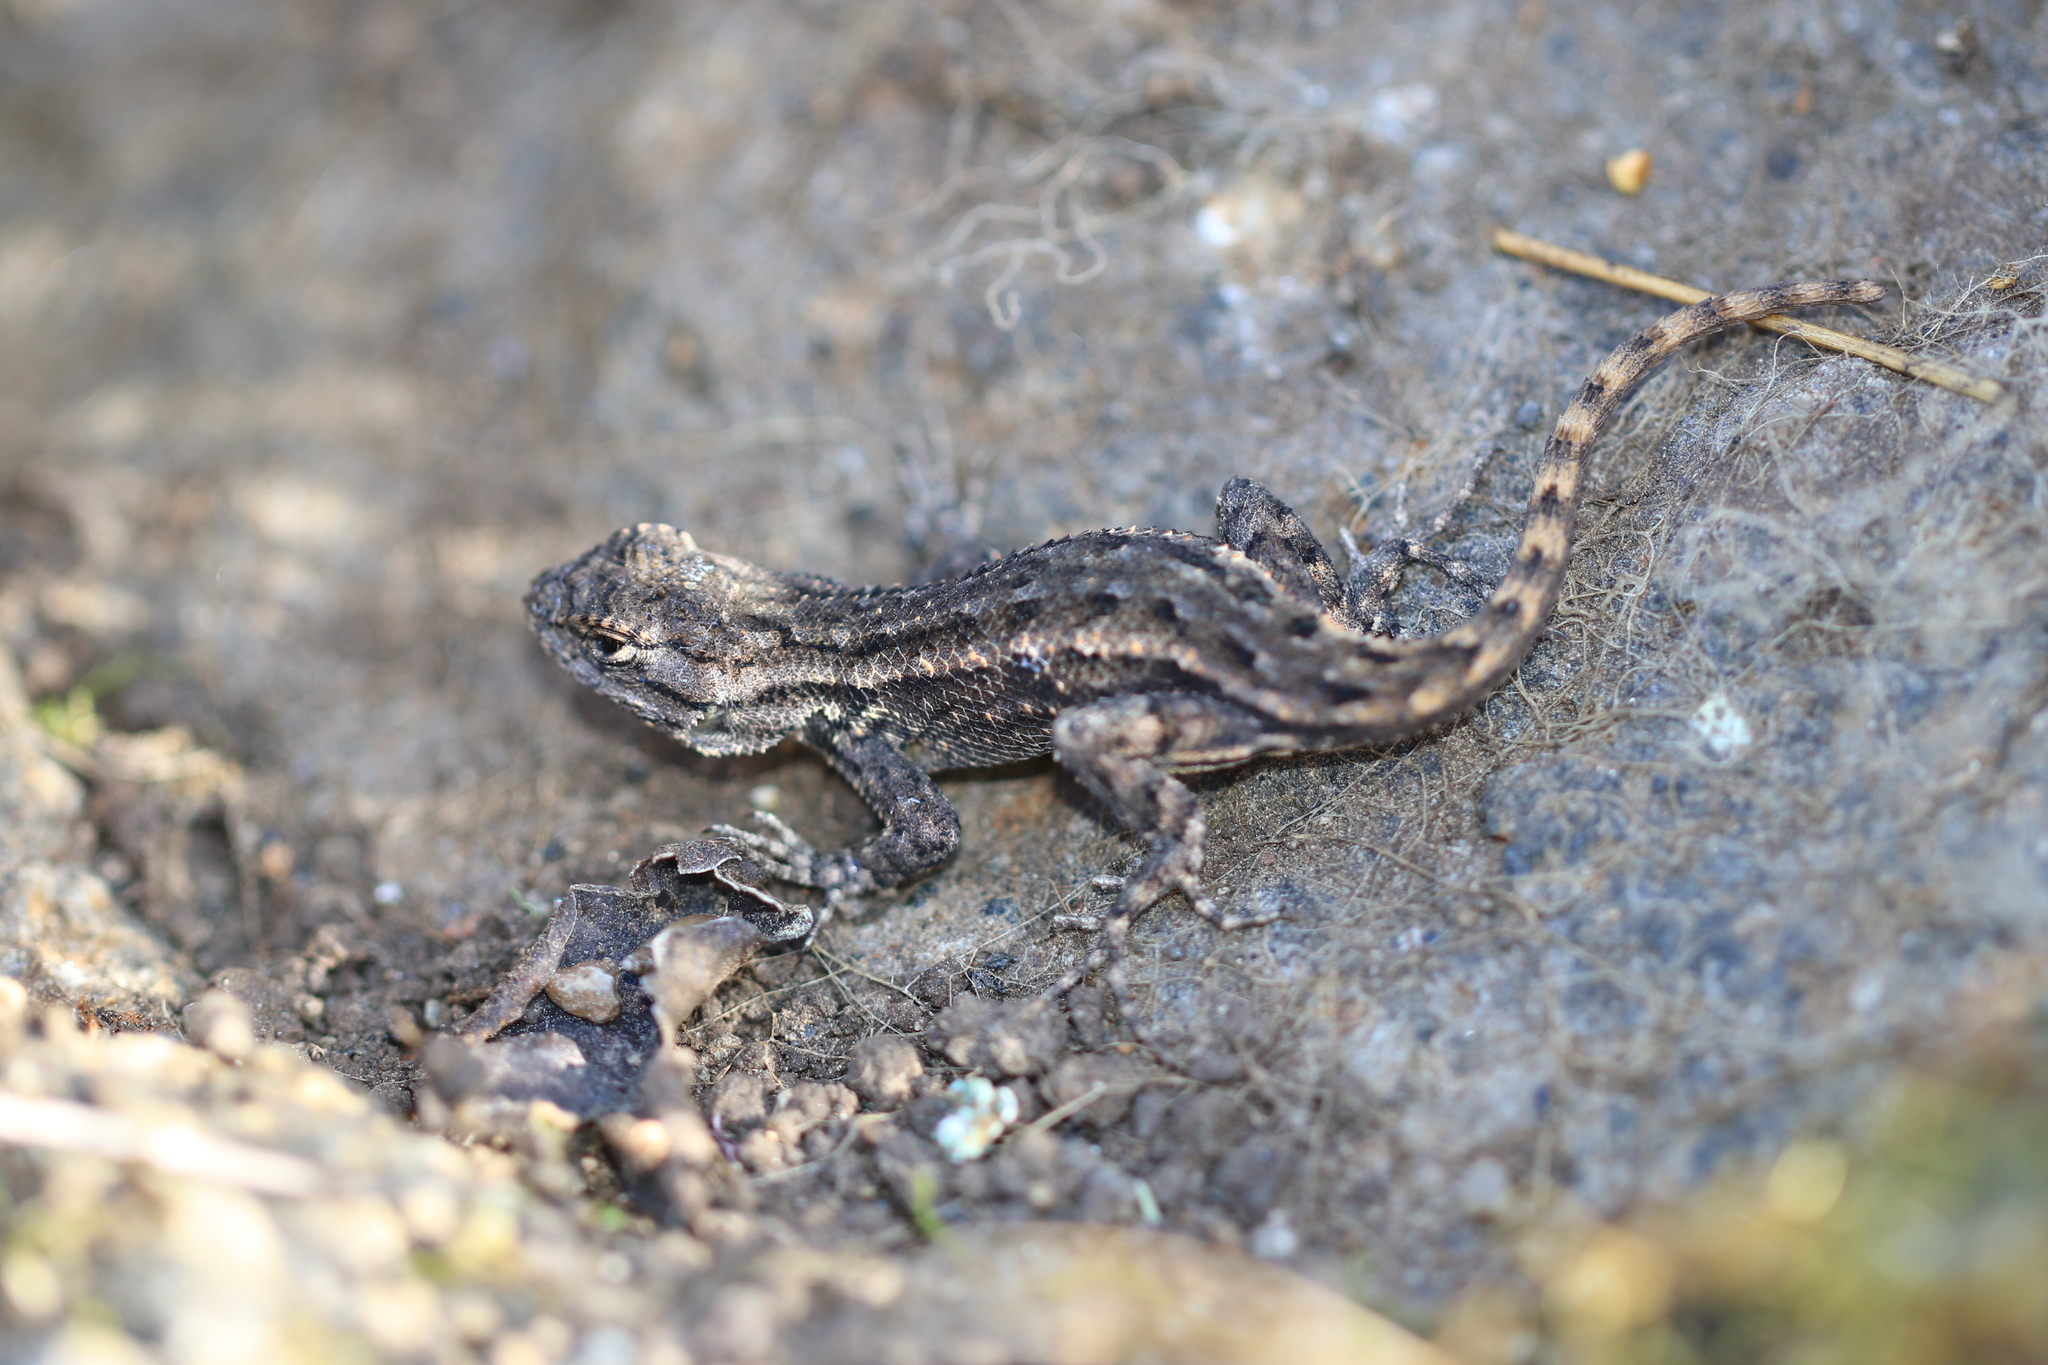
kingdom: Animalia
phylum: Chordata
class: Squamata
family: Phrynosomatidae
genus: Sceloporus
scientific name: Sceloporus occidentalis
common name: Western fence lizard
